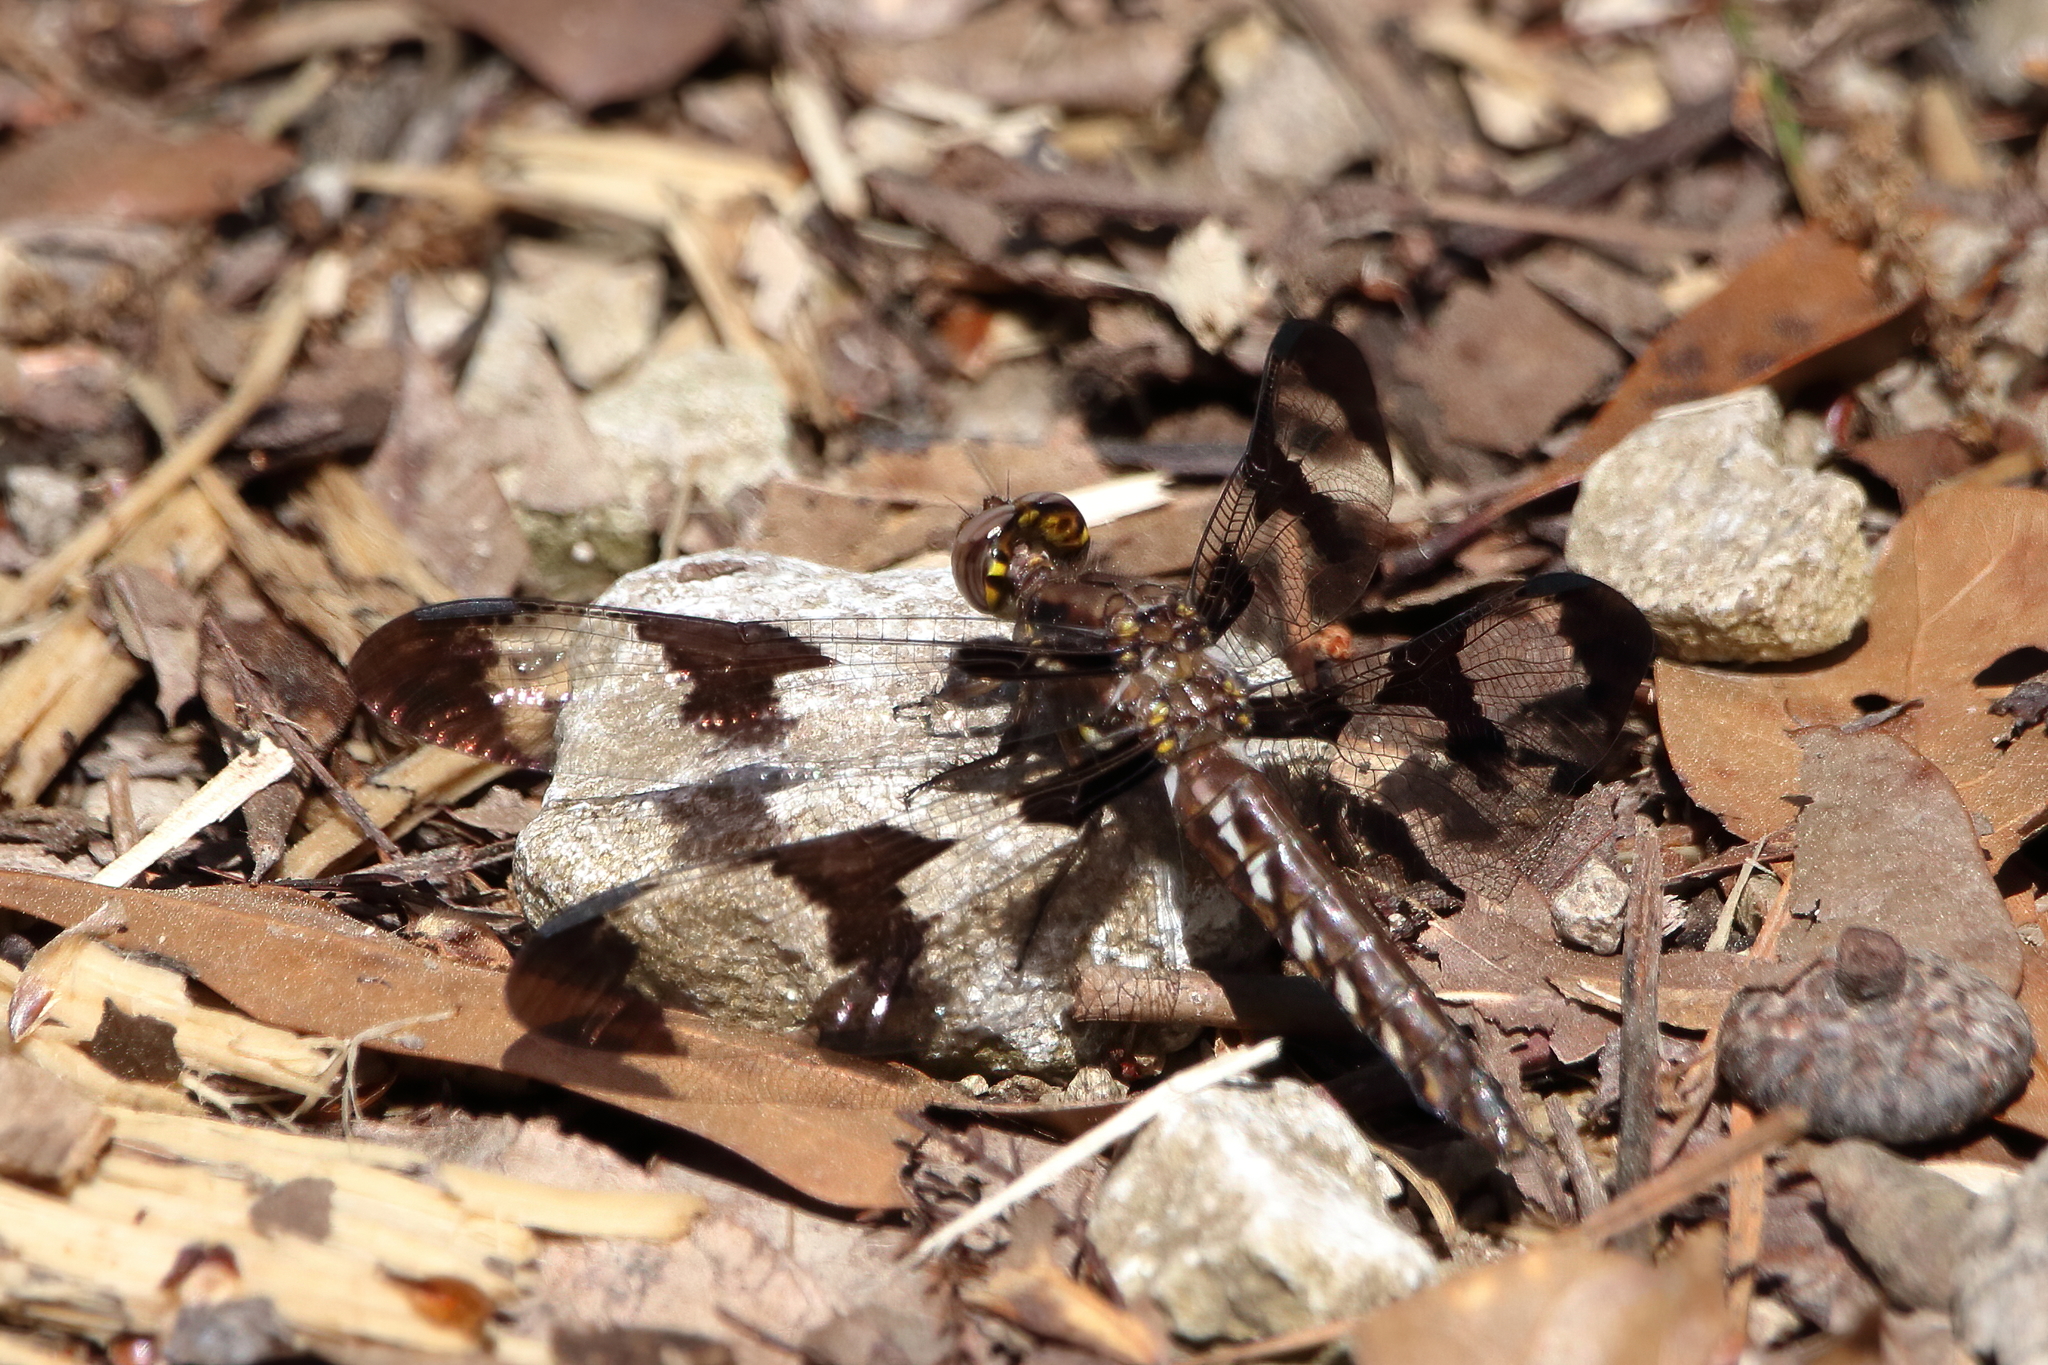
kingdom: Animalia
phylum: Arthropoda
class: Insecta
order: Odonata
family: Libellulidae
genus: Plathemis
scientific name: Plathemis lydia
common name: Common whitetail
